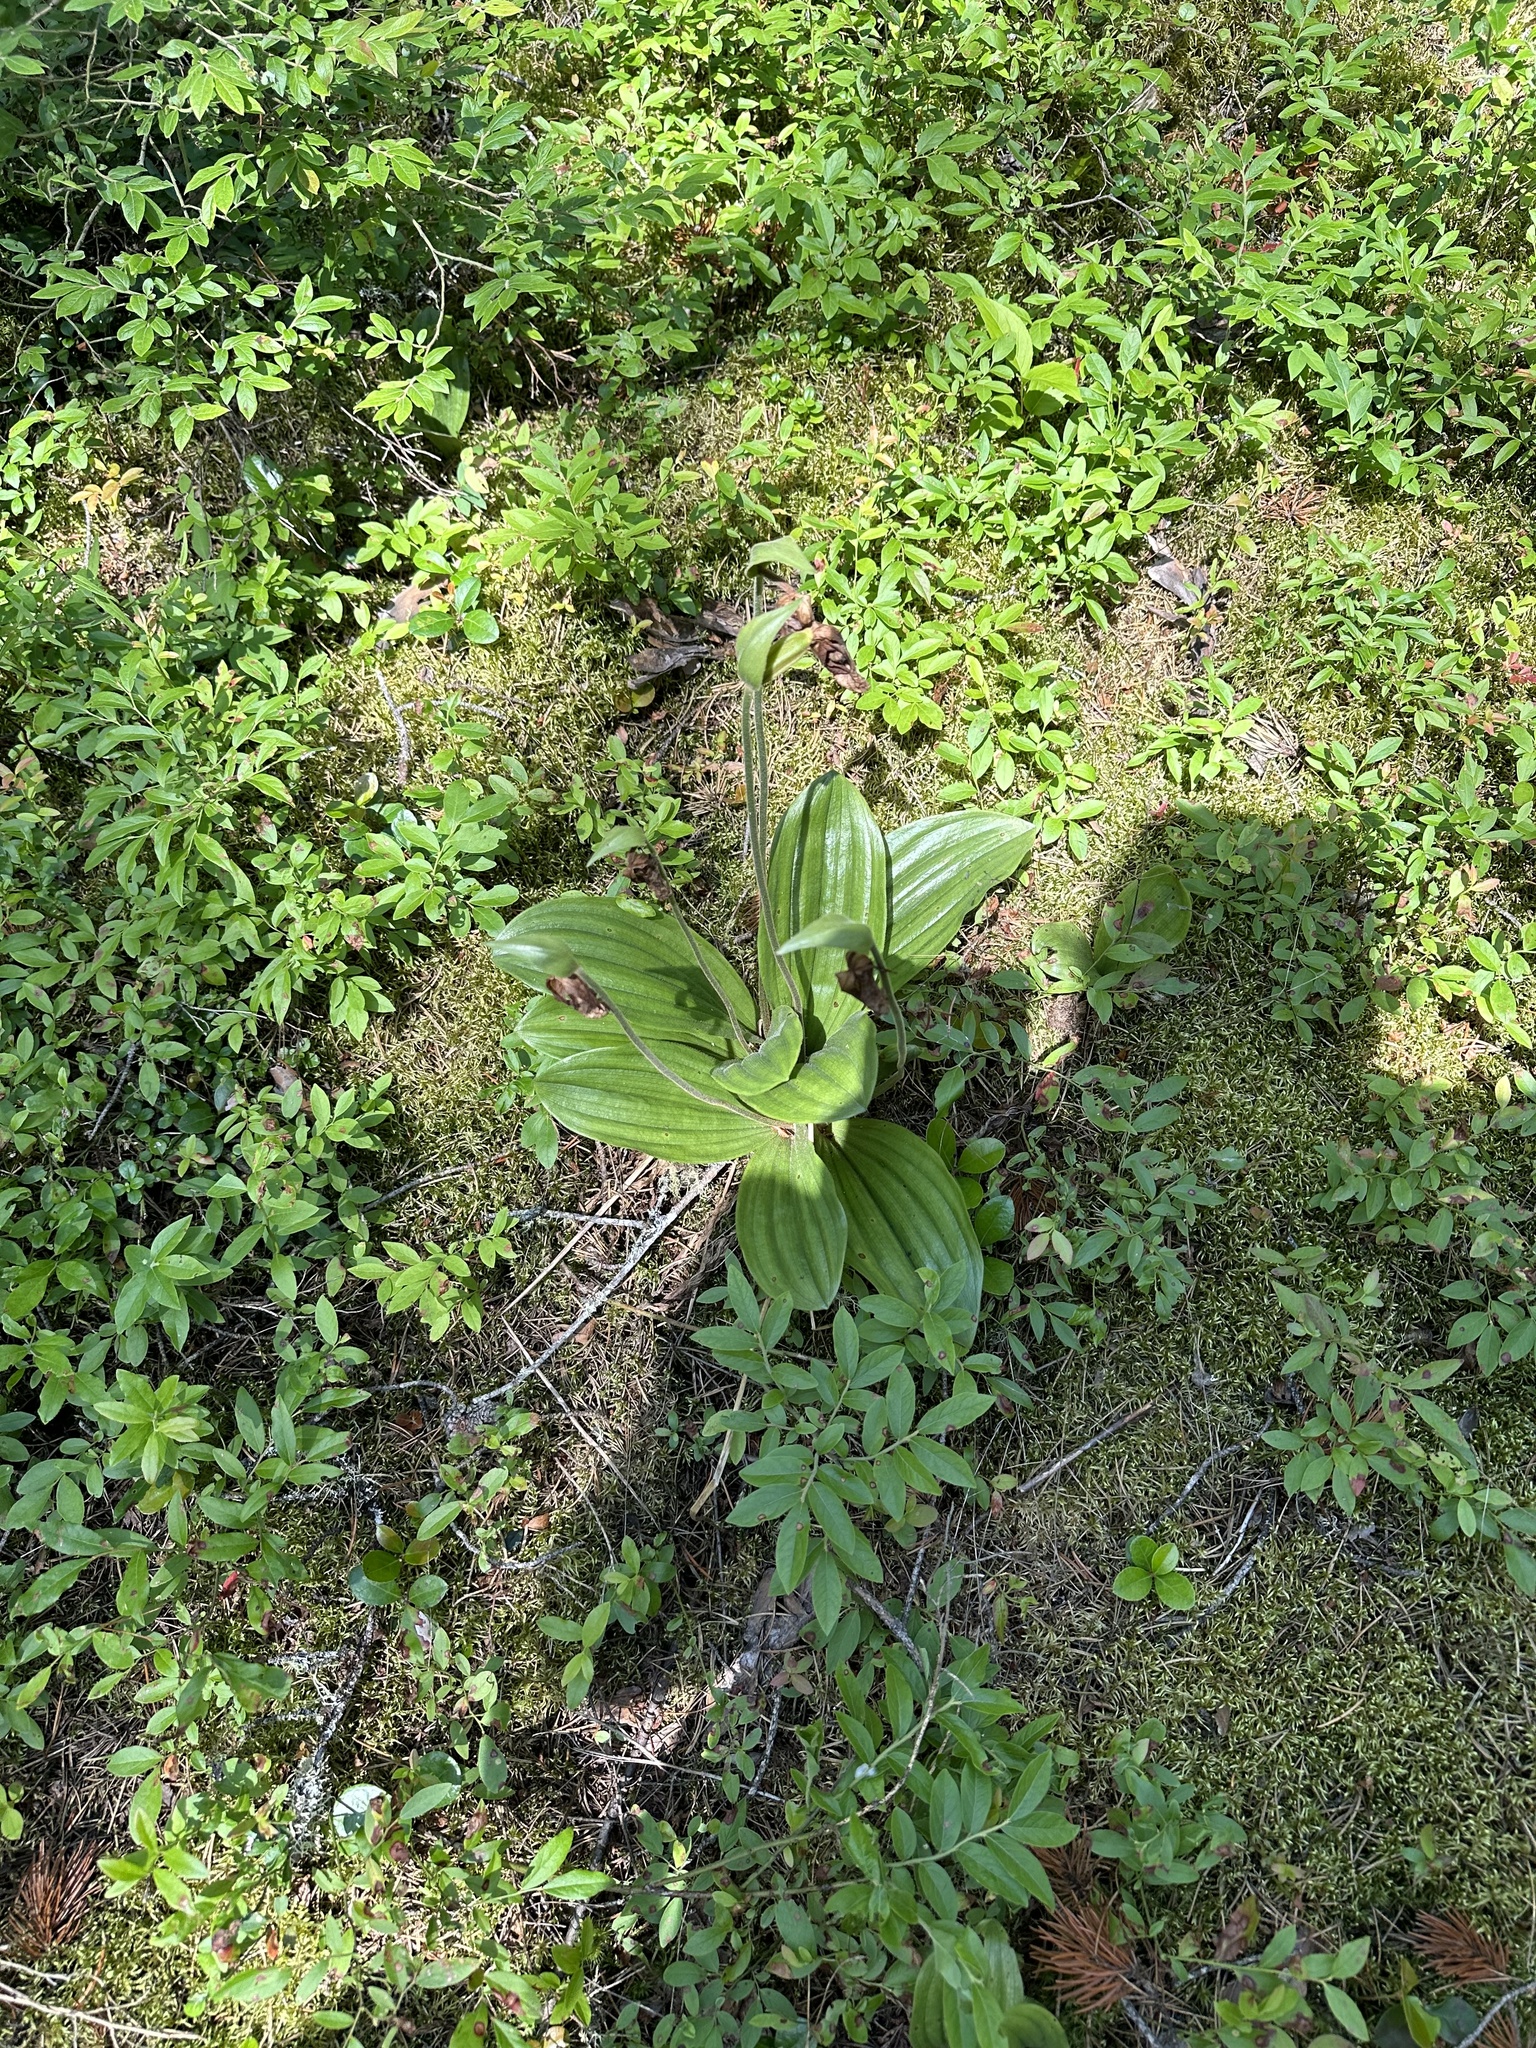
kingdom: Plantae
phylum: Tracheophyta
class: Liliopsida
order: Asparagales
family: Orchidaceae
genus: Cypripedium
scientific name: Cypripedium acaule
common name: Pink lady's-slipper
